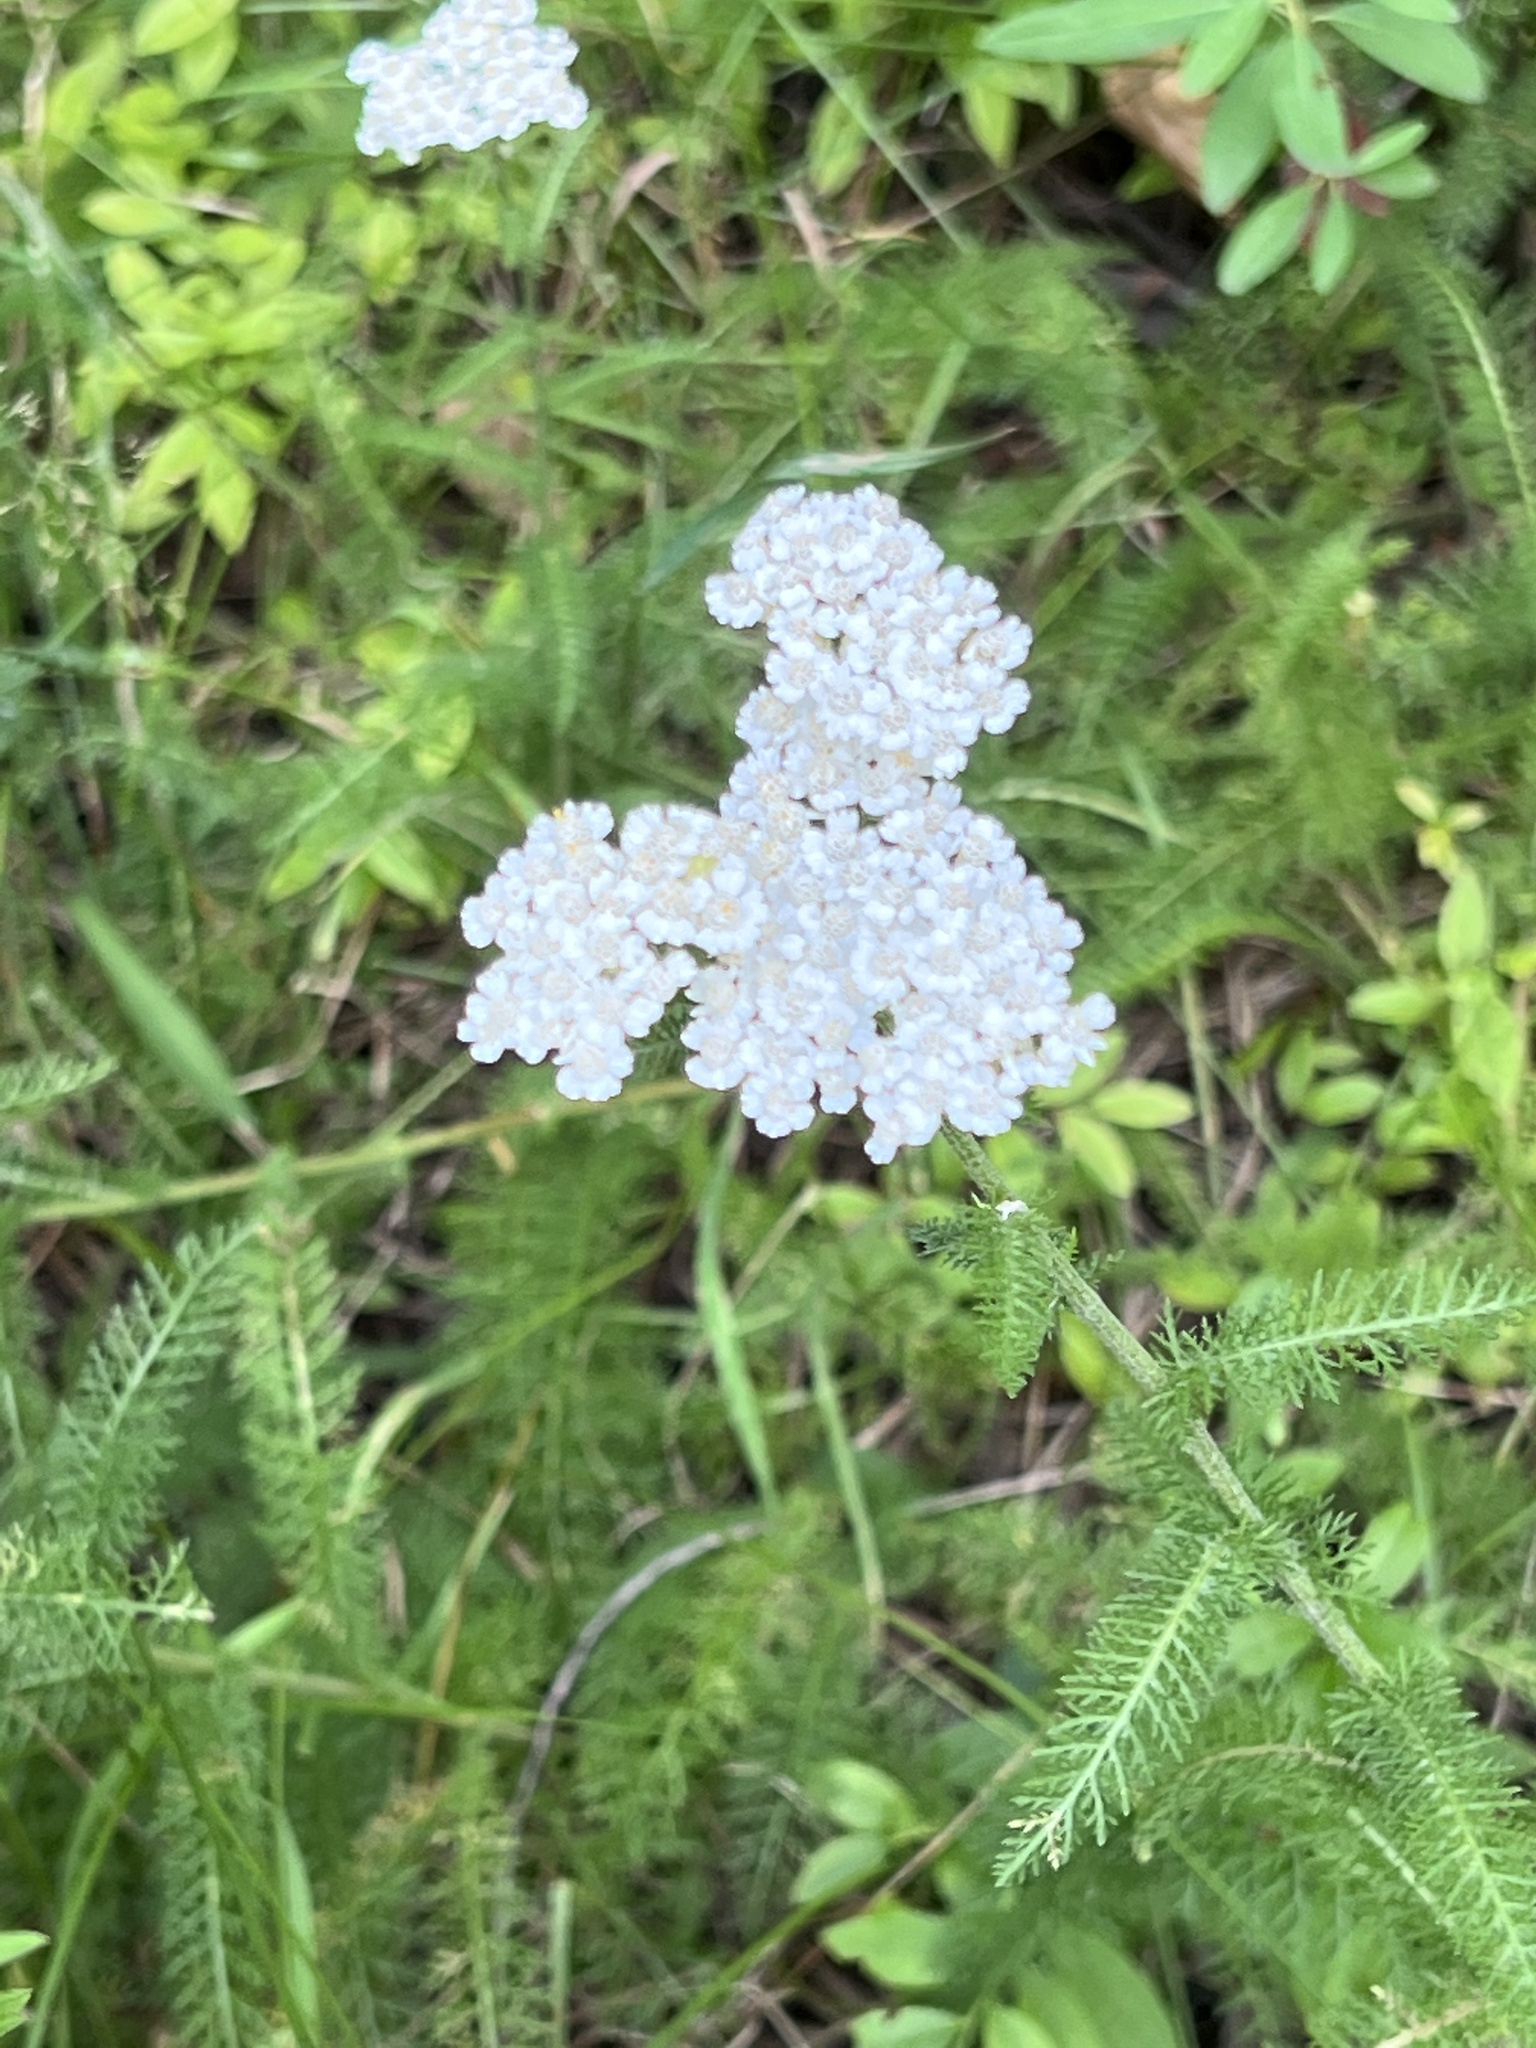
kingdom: Plantae
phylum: Tracheophyta
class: Magnoliopsida
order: Asterales
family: Asteraceae
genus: Achillea
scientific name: Achillea millefolium
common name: Yarrow
